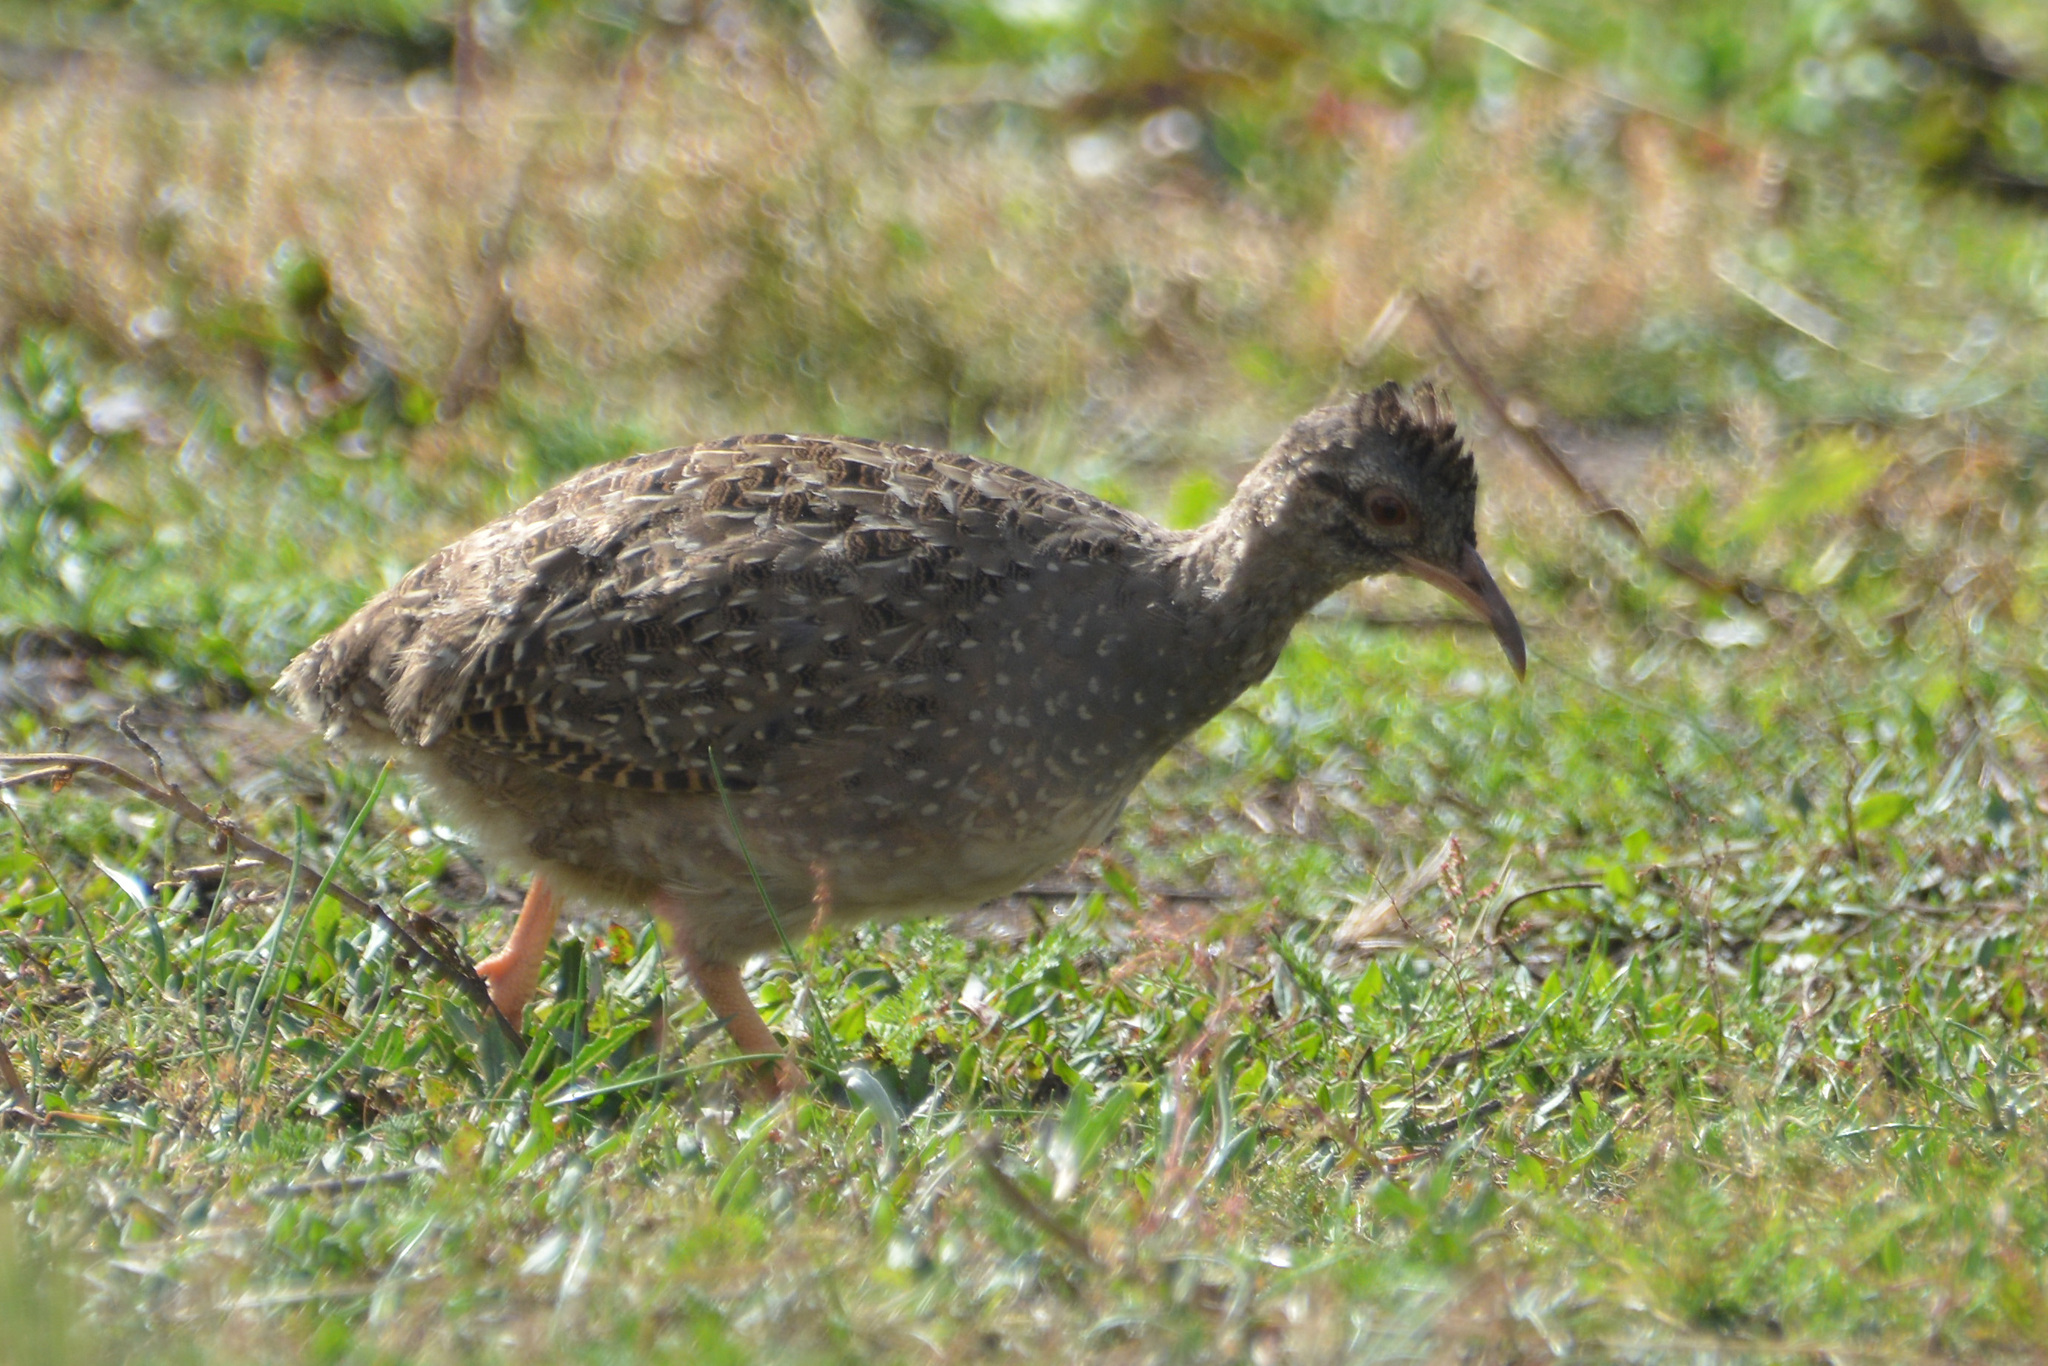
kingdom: Animalia
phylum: Chordata
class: Aves
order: Tinamiformes
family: Tinamidae
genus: Nothoprocta
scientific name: Nothoprocta pentlandii
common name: Andean tinamou
